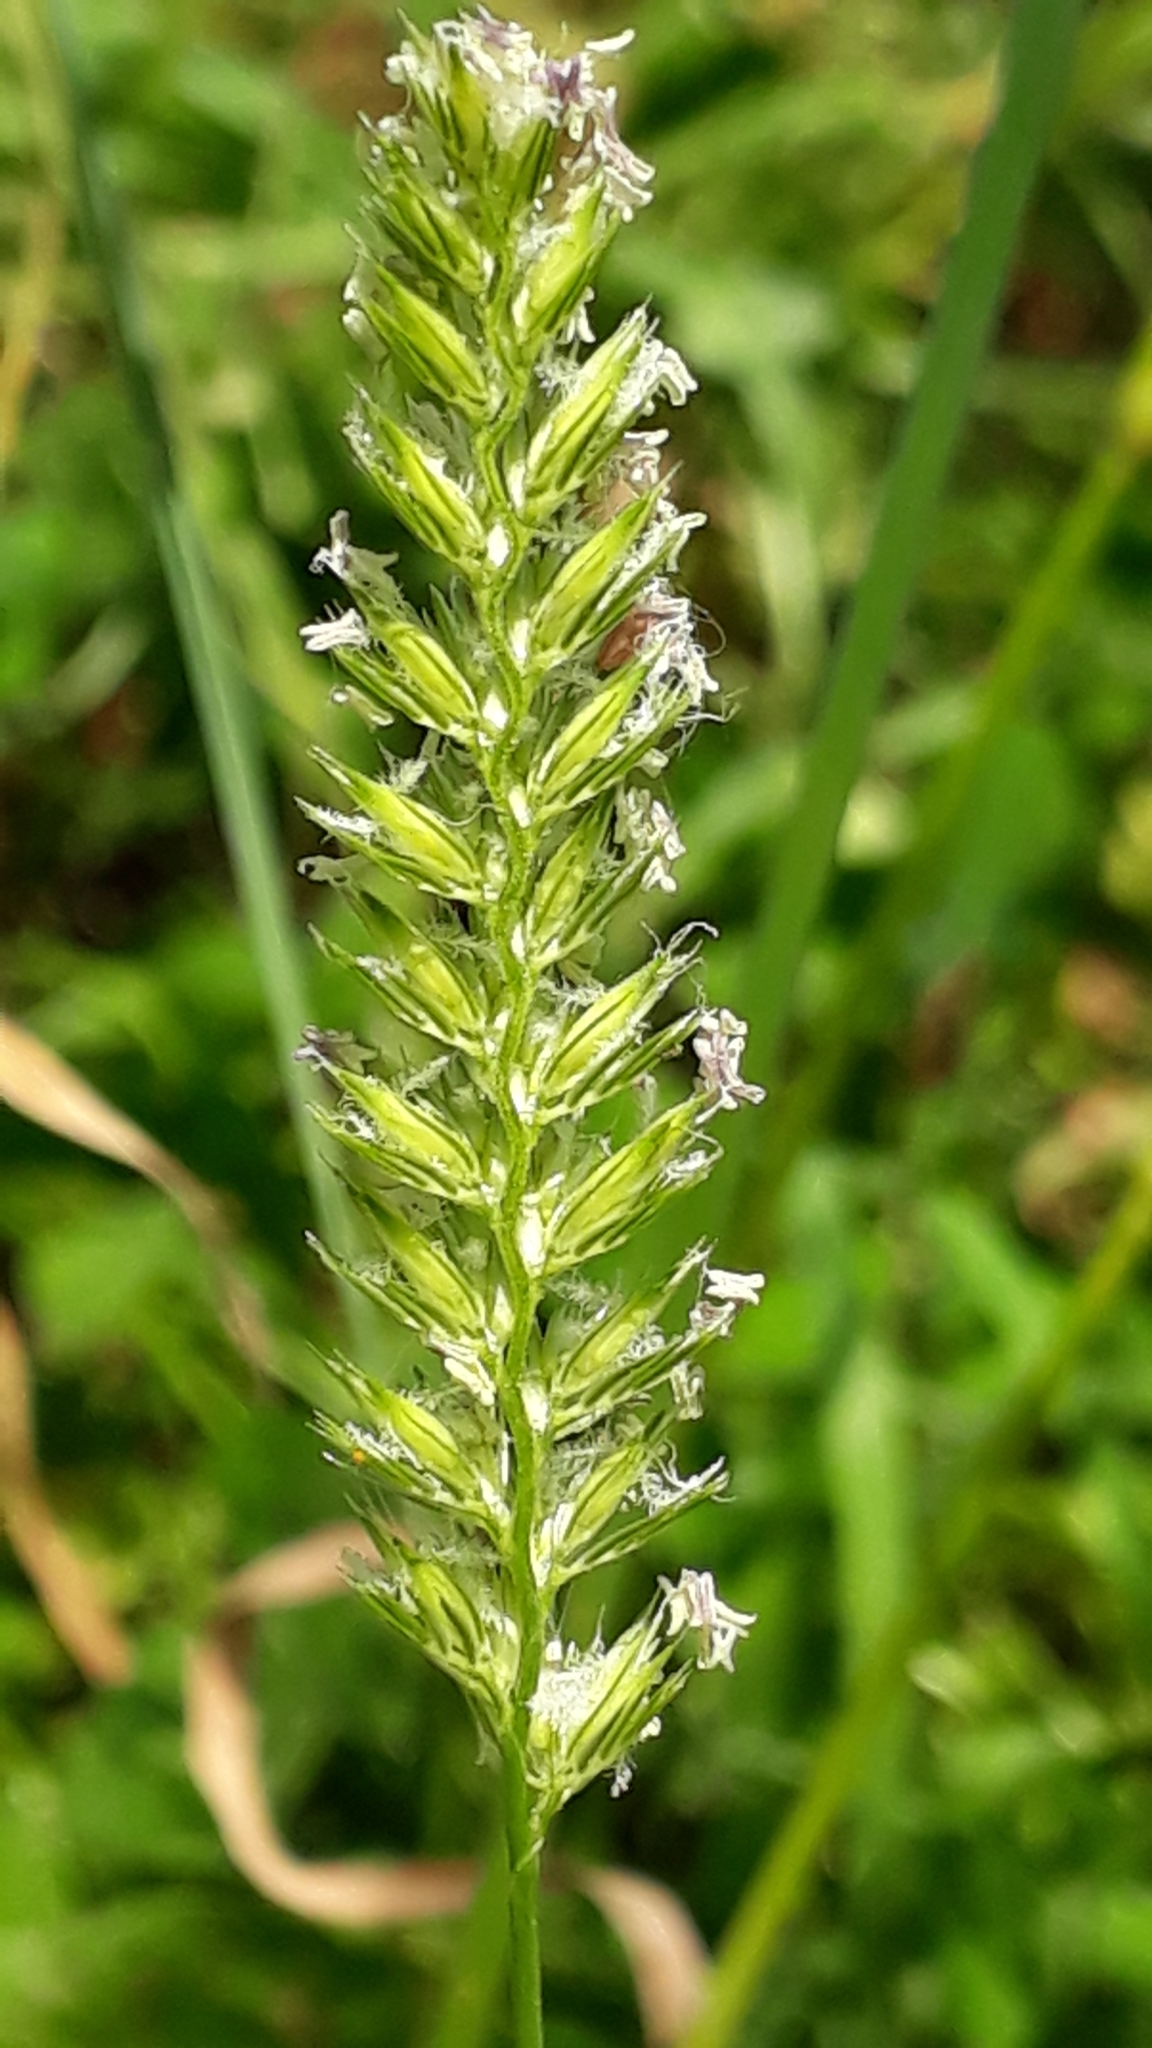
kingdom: Plantae
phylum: Tracheophyta
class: Liliopsida
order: Poales
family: Poaceae
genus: Cynosurus
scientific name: Cynosurus cristatus
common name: Crested dog's-tail
